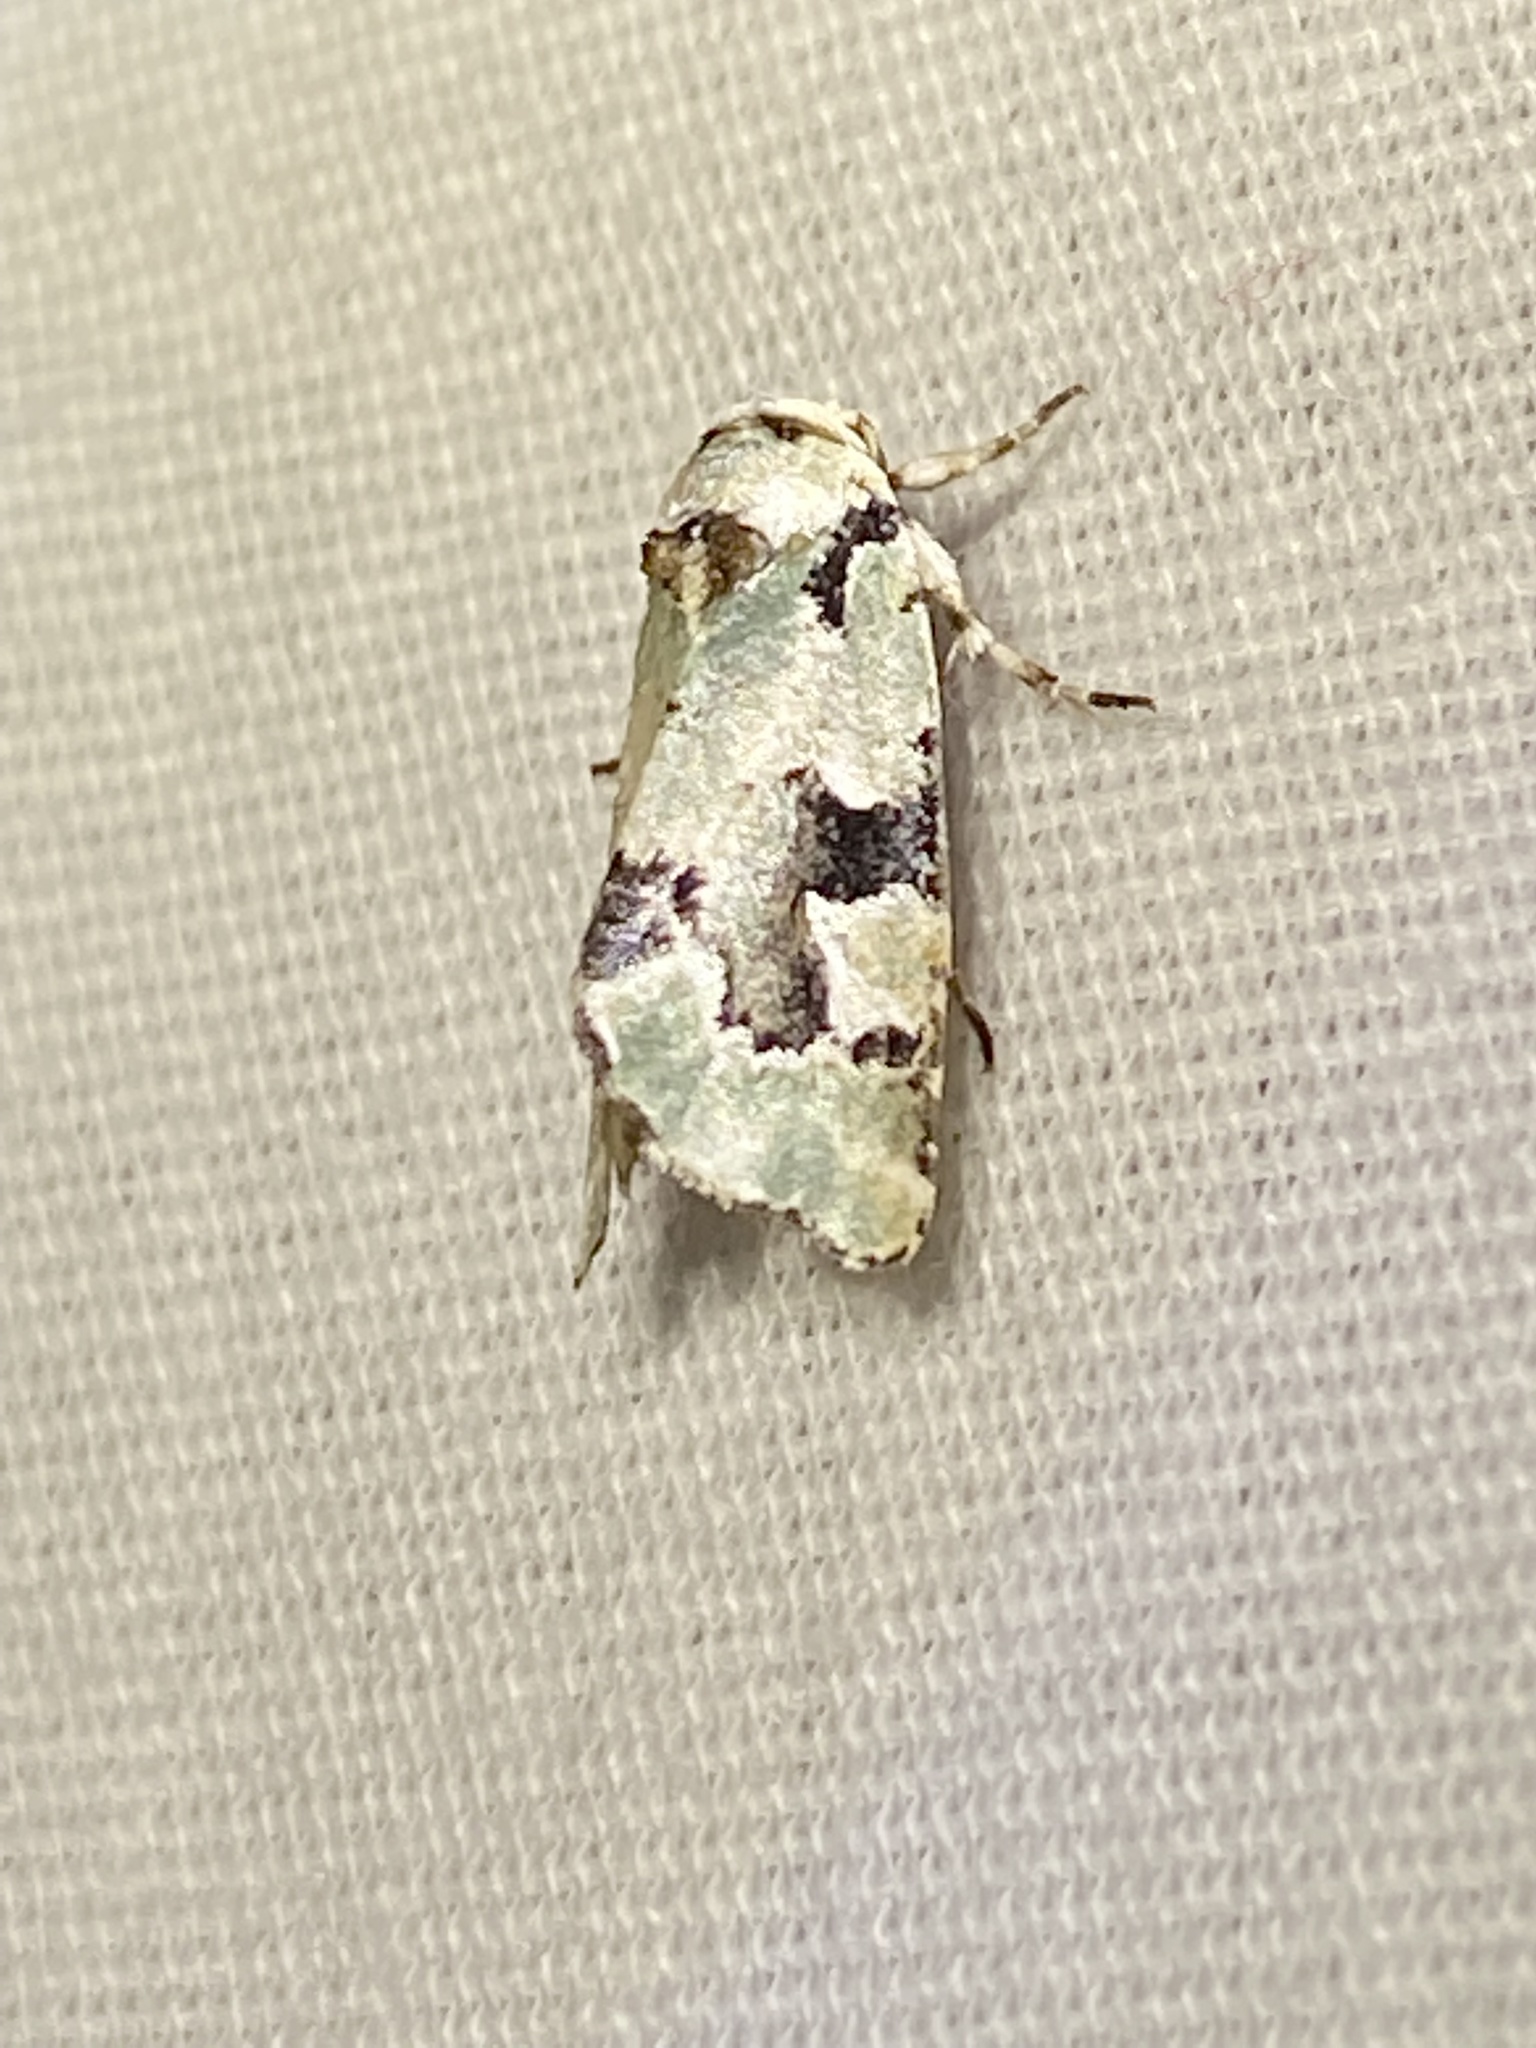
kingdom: Animalia
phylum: Arthropoda
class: Insecta
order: Lepidoptera
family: Noctuidae
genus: Emarginea
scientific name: Emarginea percara
